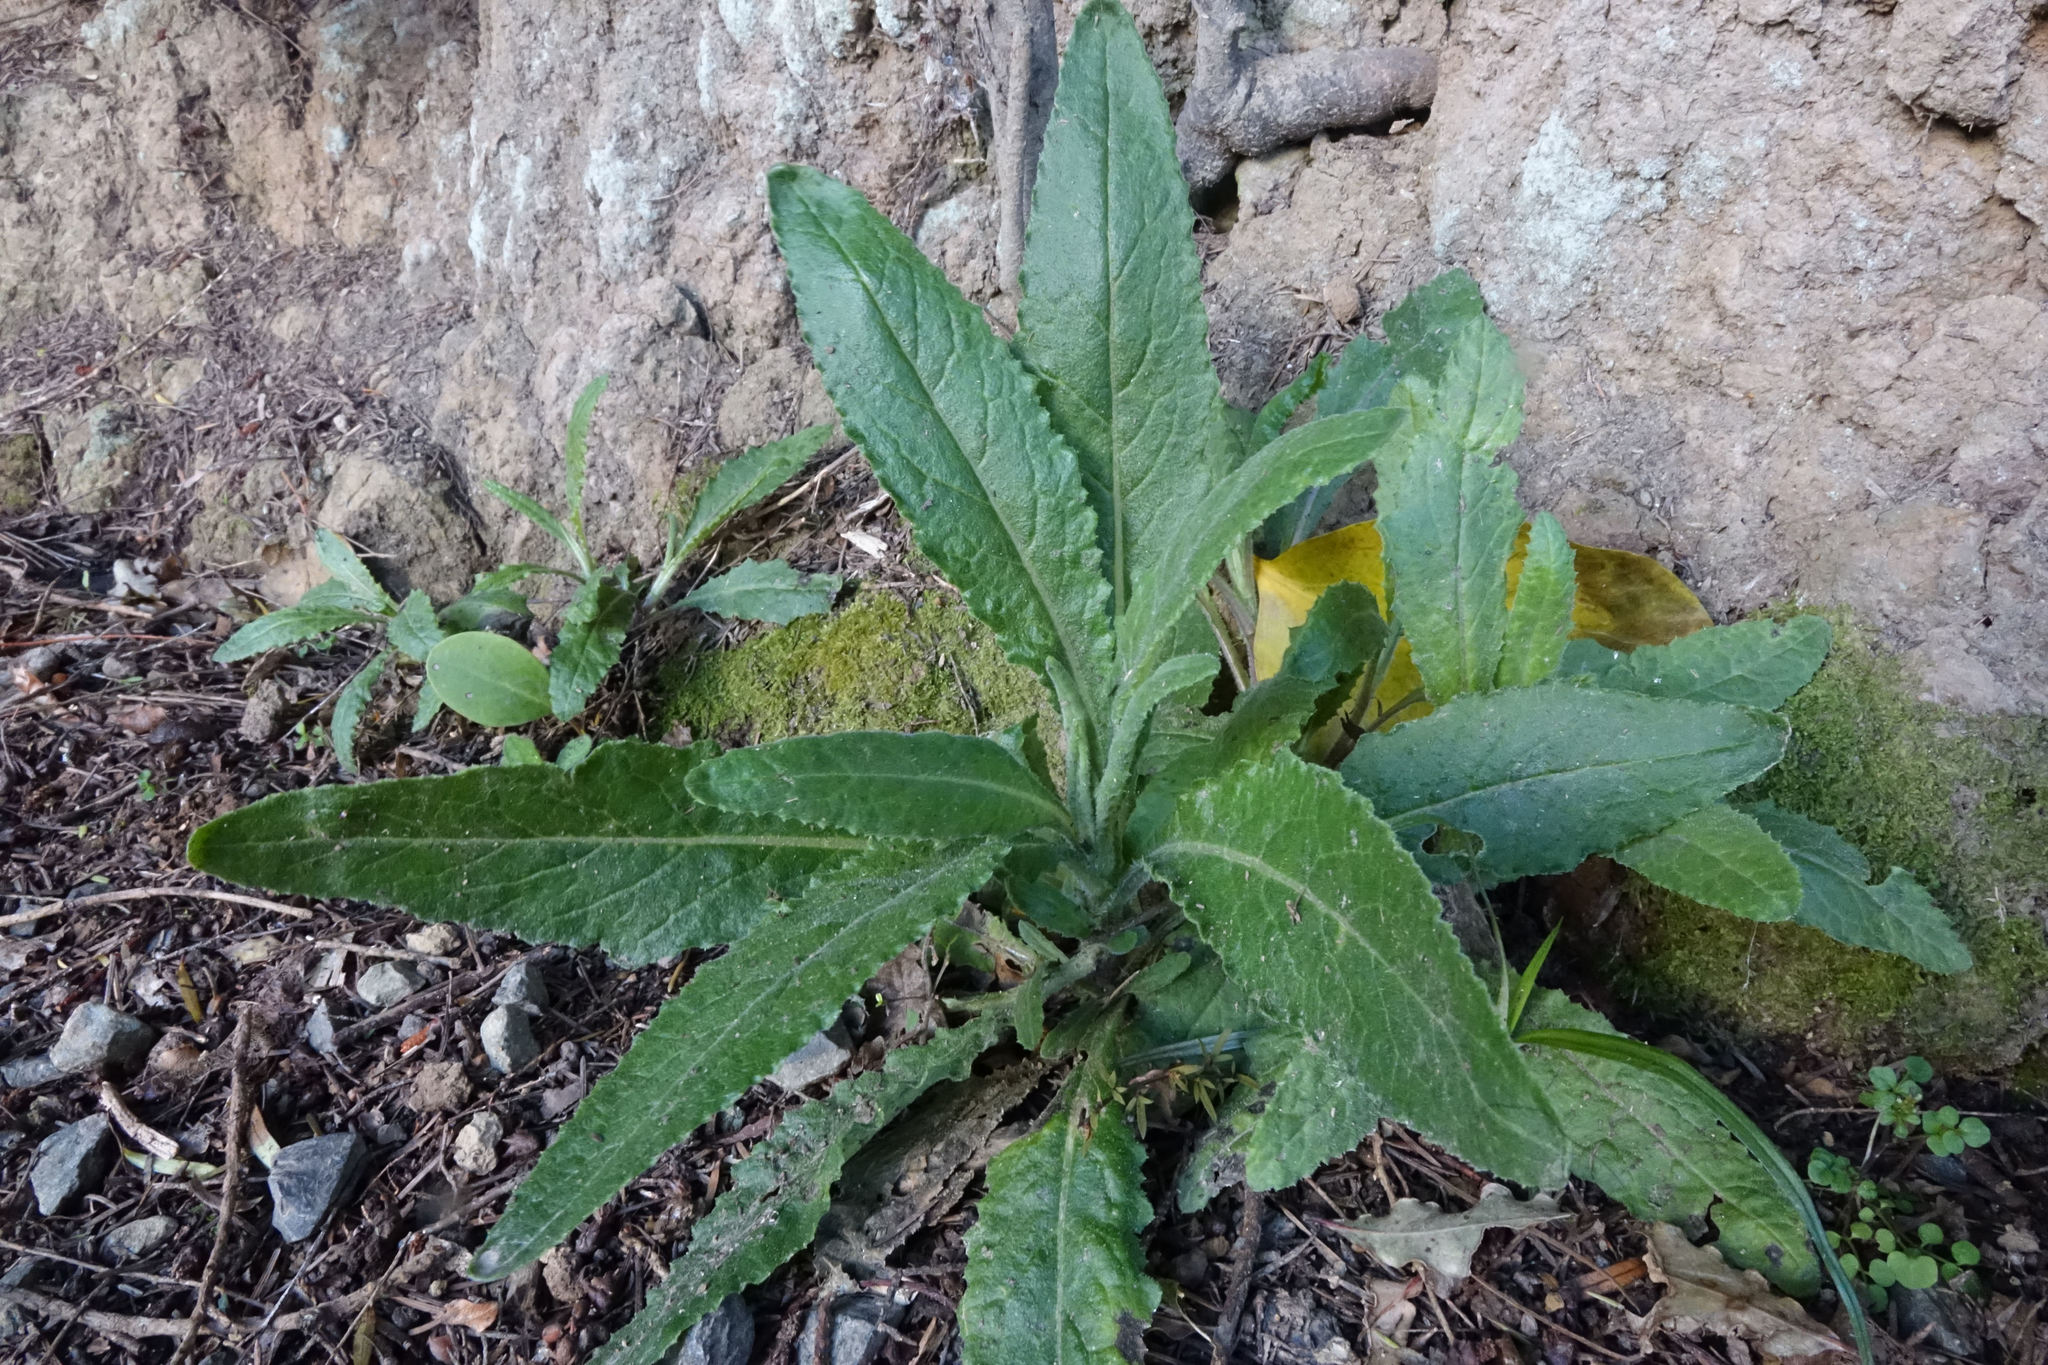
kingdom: Plantae
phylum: Tracheophyta
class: Magnoliopsida
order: Asterales
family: Asteraceae
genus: Senecio
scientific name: Senecio minimus
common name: Toothed fireweed
